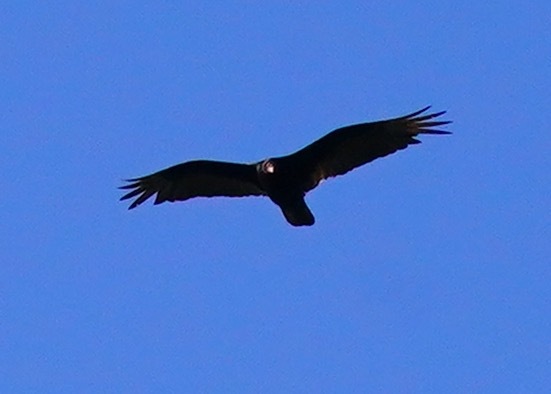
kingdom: Animalia
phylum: Chordata
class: Aves
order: Accipitriformes
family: Cathartidae
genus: Cathartes
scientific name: Cathartes aura
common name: Turkey vulture
